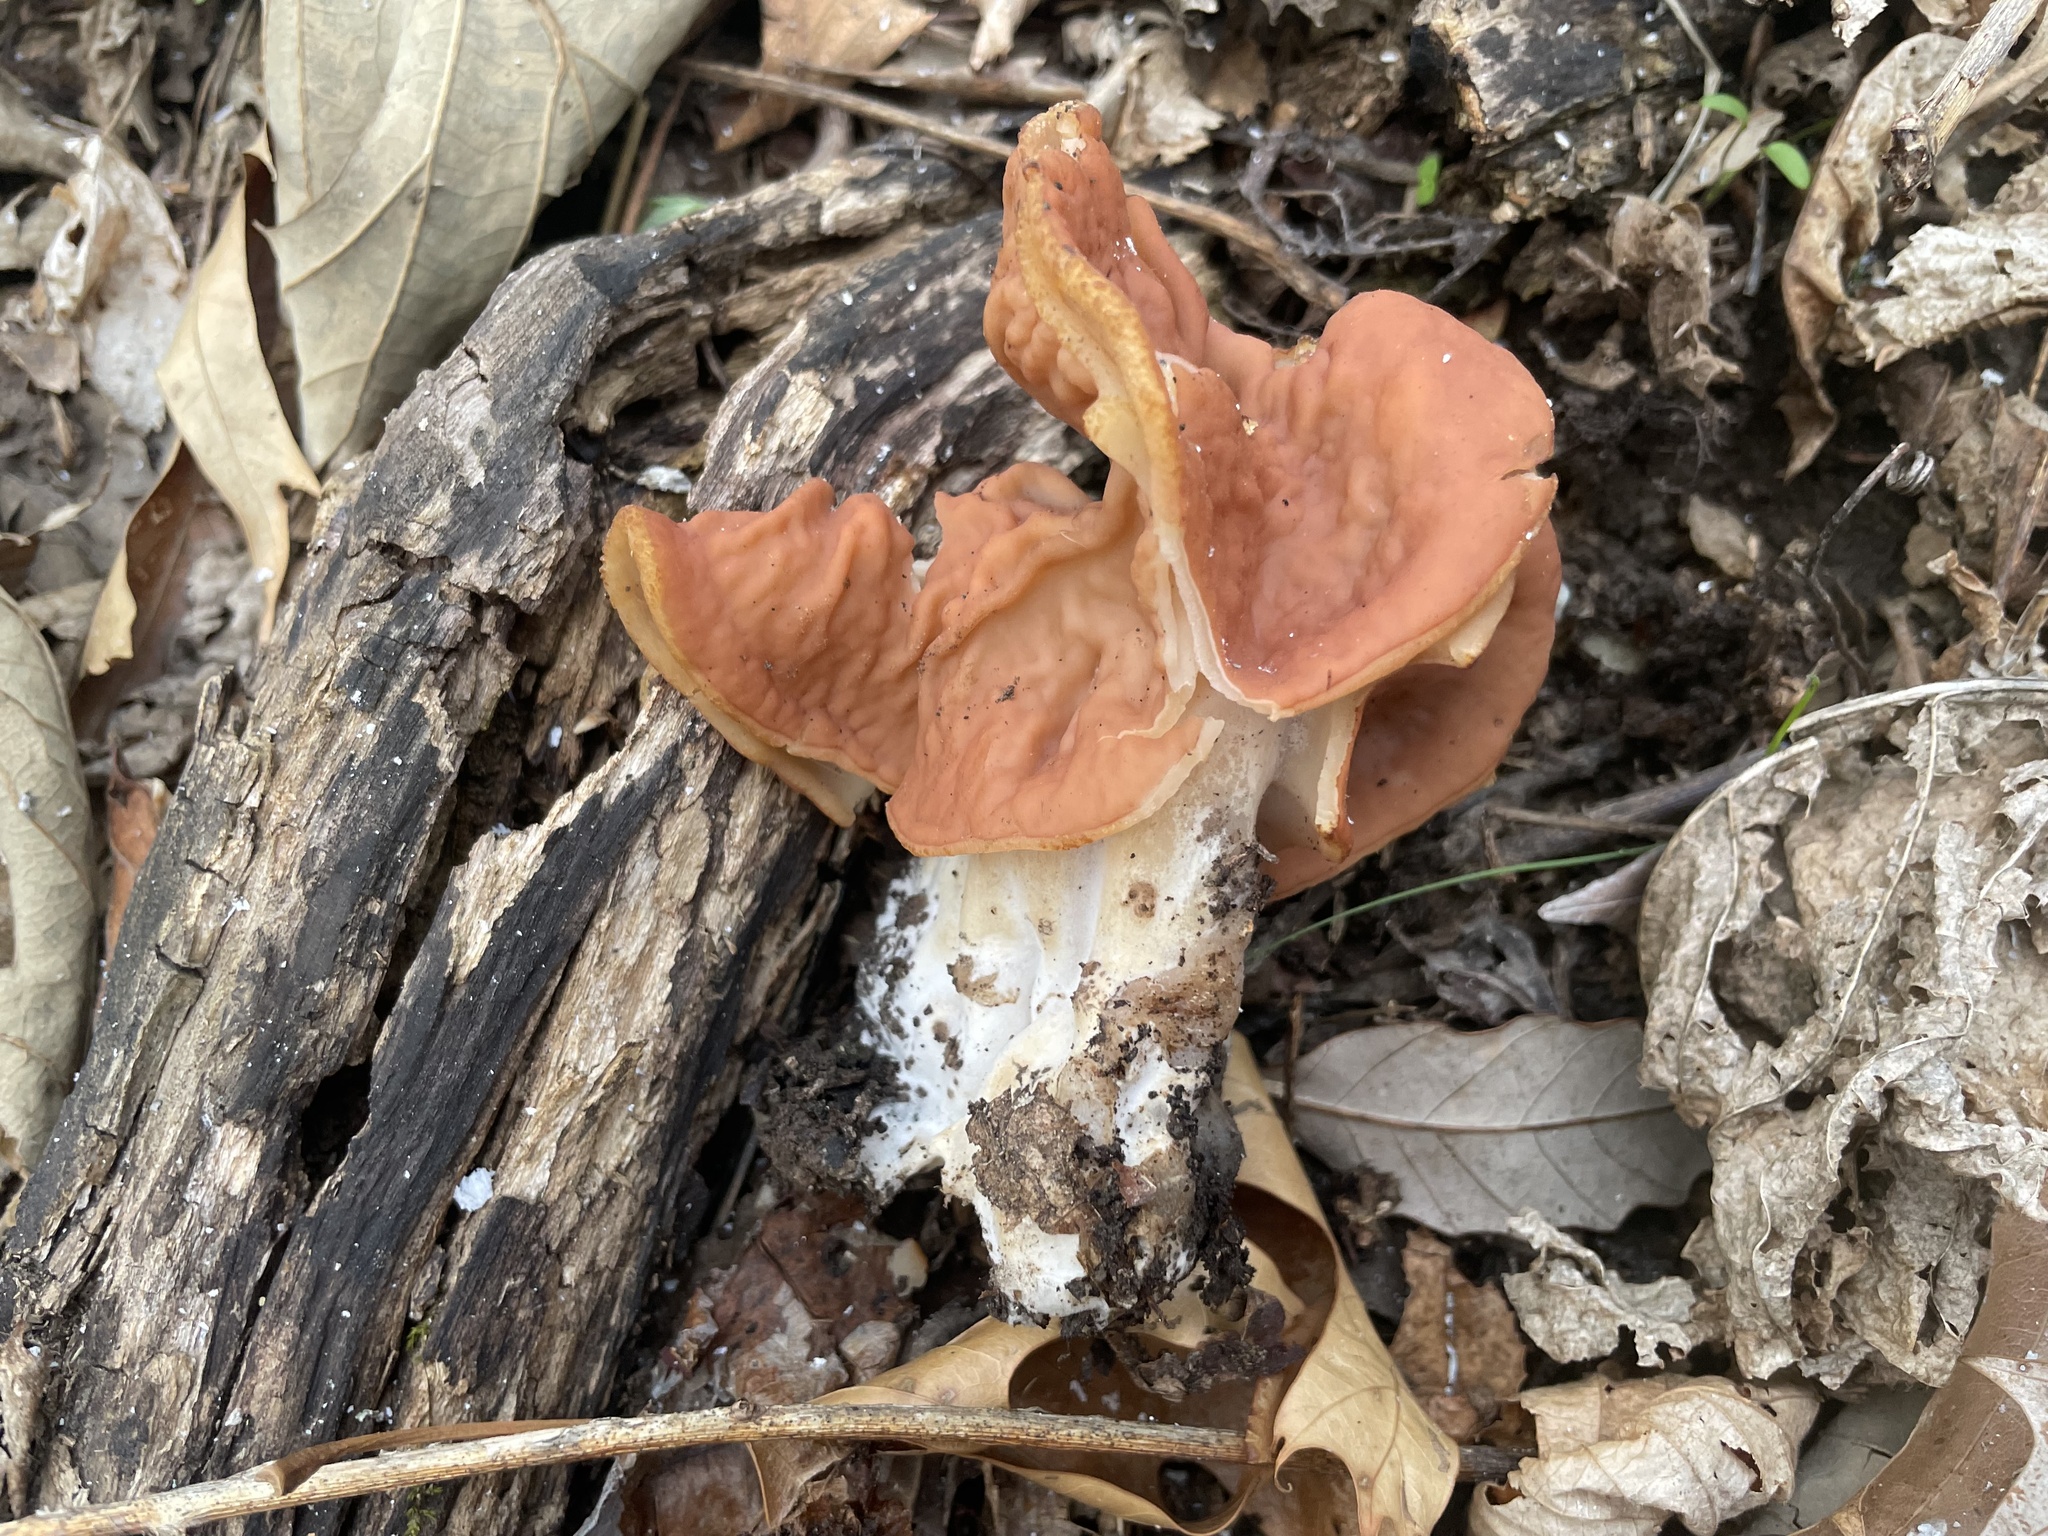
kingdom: Fungi
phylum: Ascomycota
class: Pezizomycetes
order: Pezizales
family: Discinaceae
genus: Discina
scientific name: Discina brunnea
